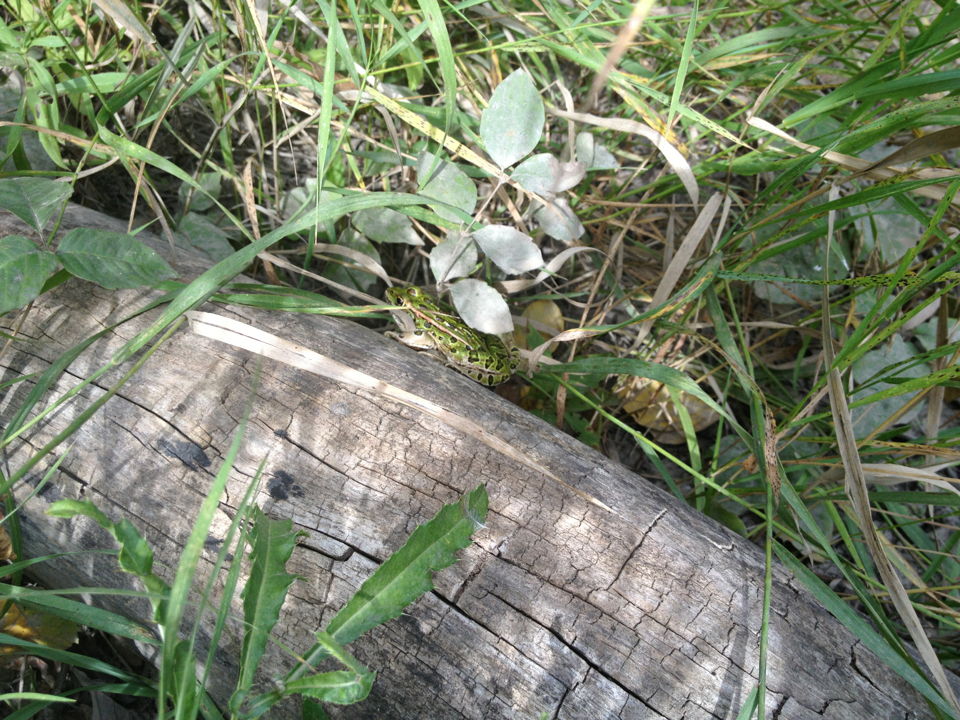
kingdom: Animalia
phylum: Chordata
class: Amphibia
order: Anura
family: Ranidae
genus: Lithobates
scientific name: Lithobates pipiens
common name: Northern leopard frog
